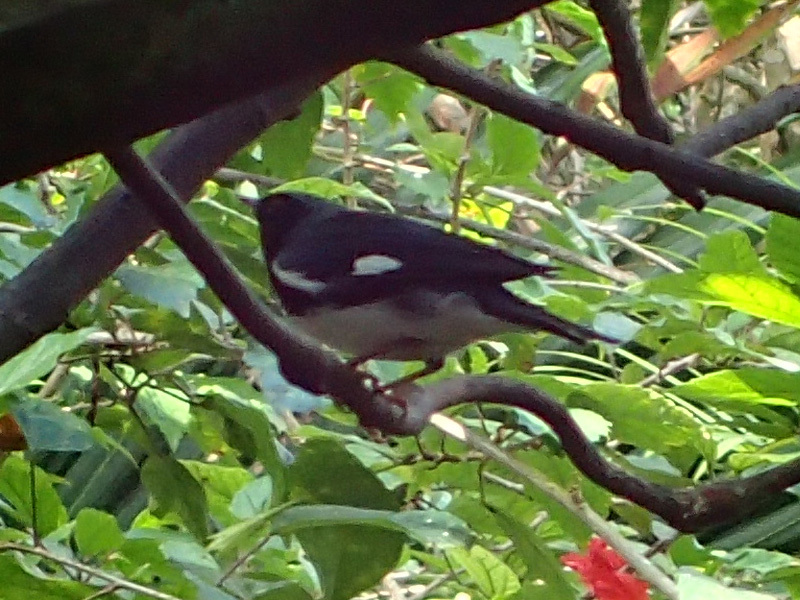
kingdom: Animalia
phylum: Chordata
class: Aves
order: Passeriformes
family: Parulidae
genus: Setophaga
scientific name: Setophaga caerulescens
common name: Black-throated blue warbler
